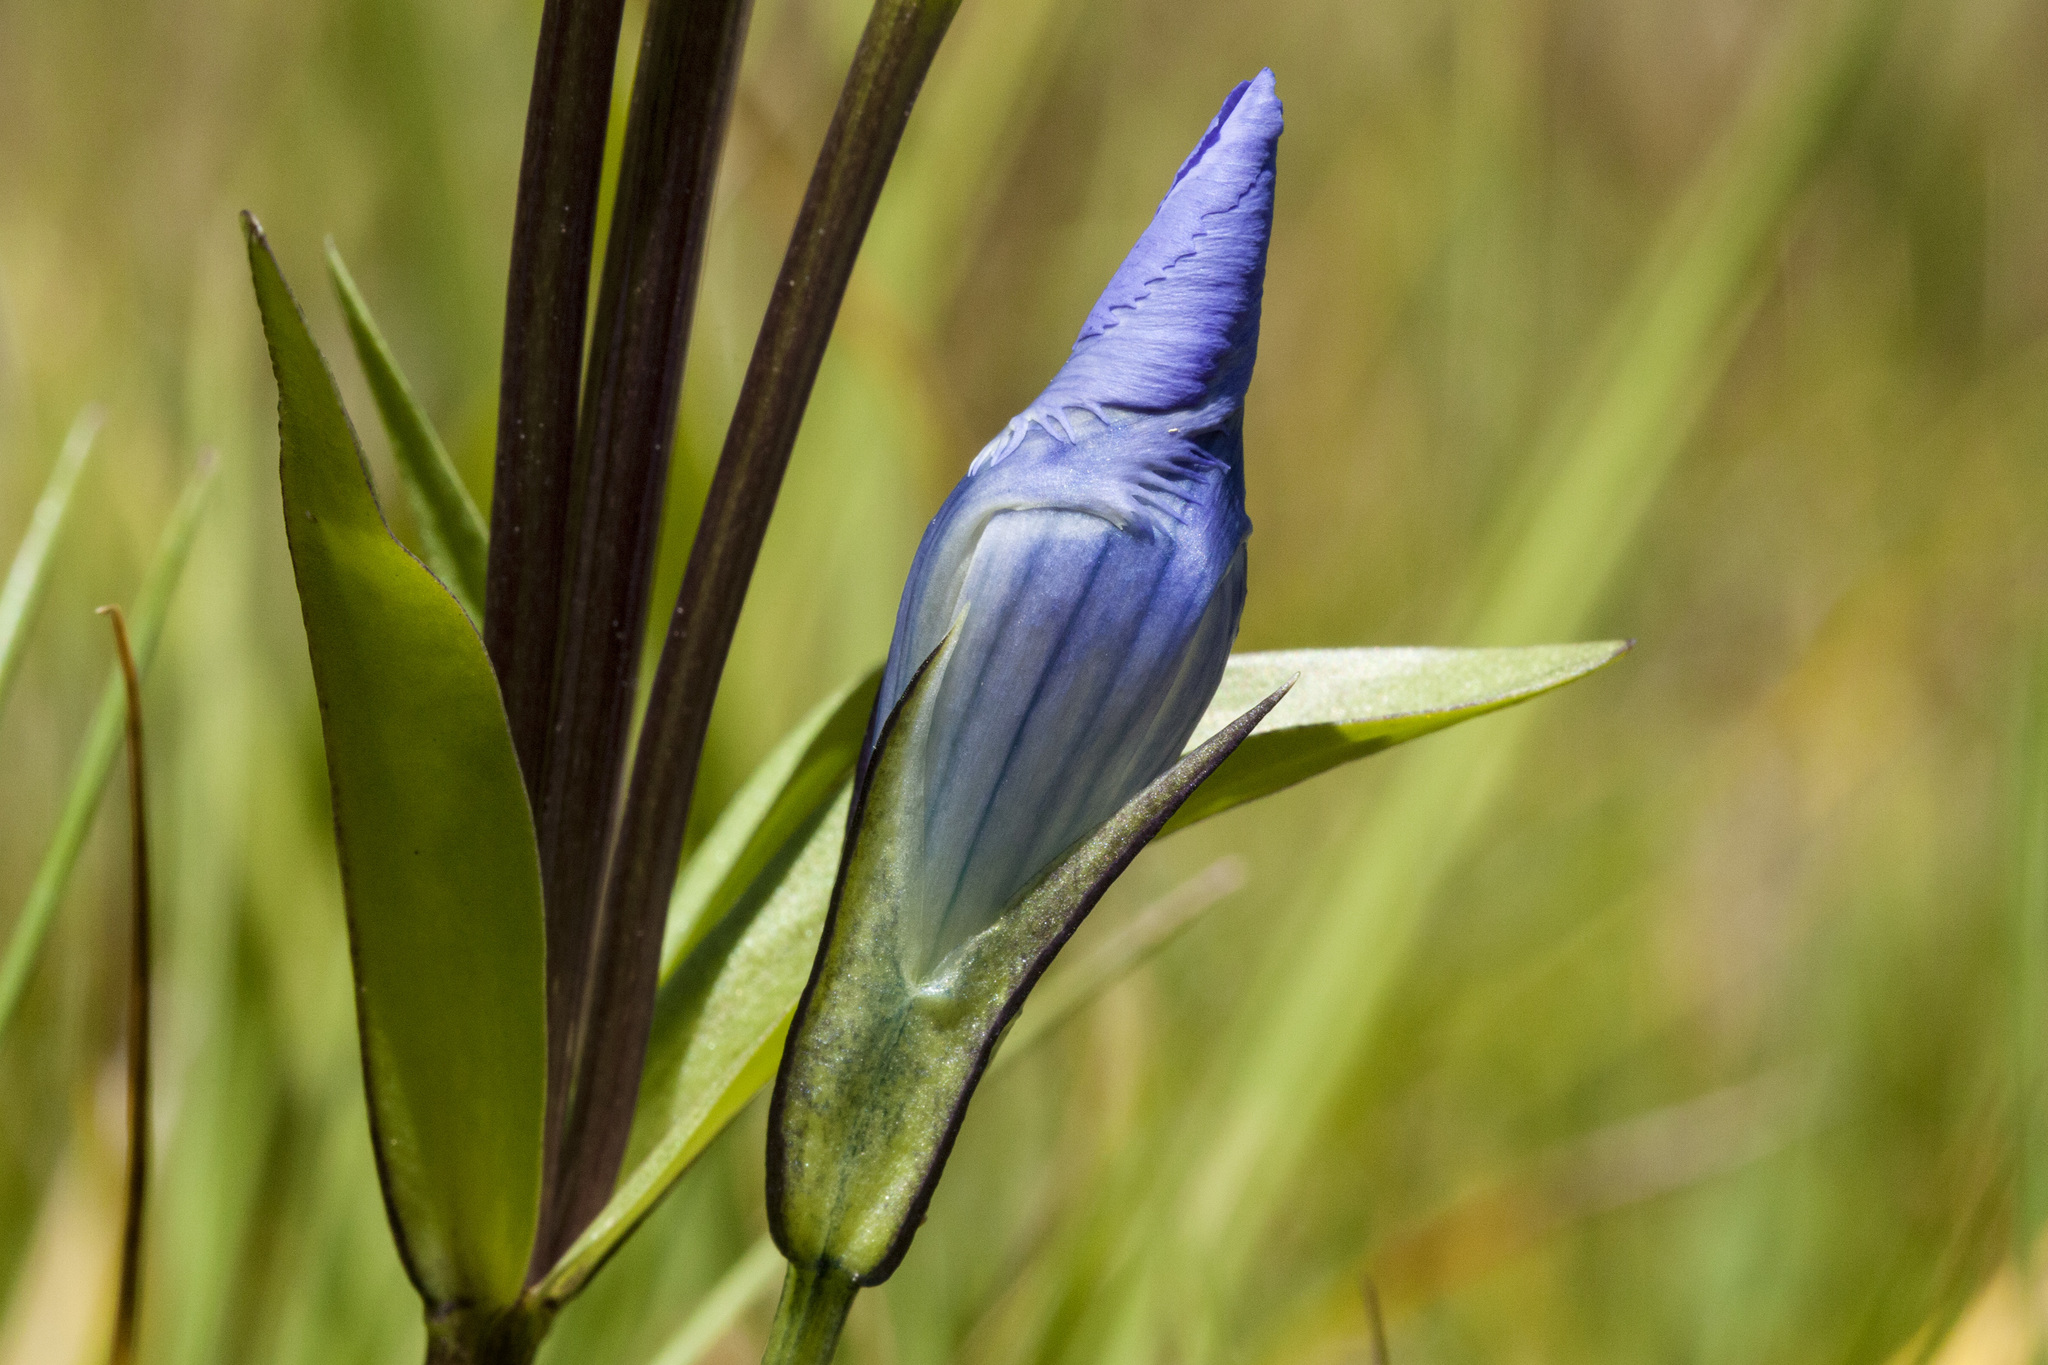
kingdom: Plantae
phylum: Tracheophyta
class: Magnoliopsida
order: Gentianales
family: Gentianaceae
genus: Gentianopsis
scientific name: Gentianopsis thermalis
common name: Rocky mountain fringed-gentian
